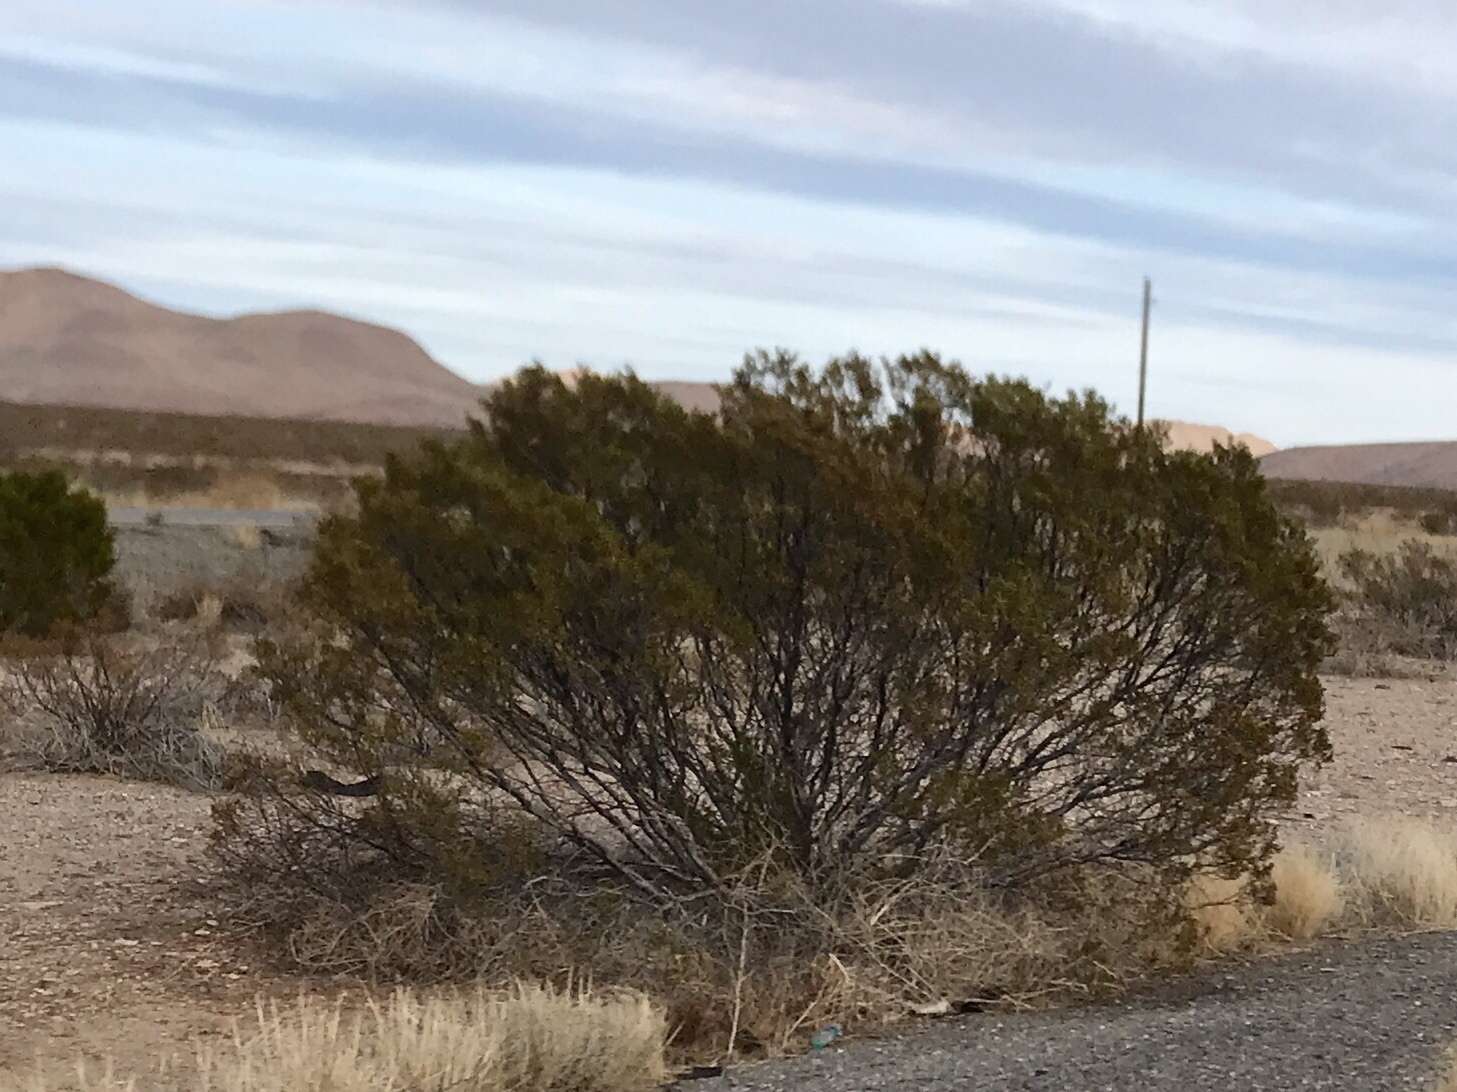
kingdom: Plantae
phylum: Tracheophyta
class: Magnoliopsida
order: Zygophyllales
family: Zygophyllaceae
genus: Larrea
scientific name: Larrea tridentata
